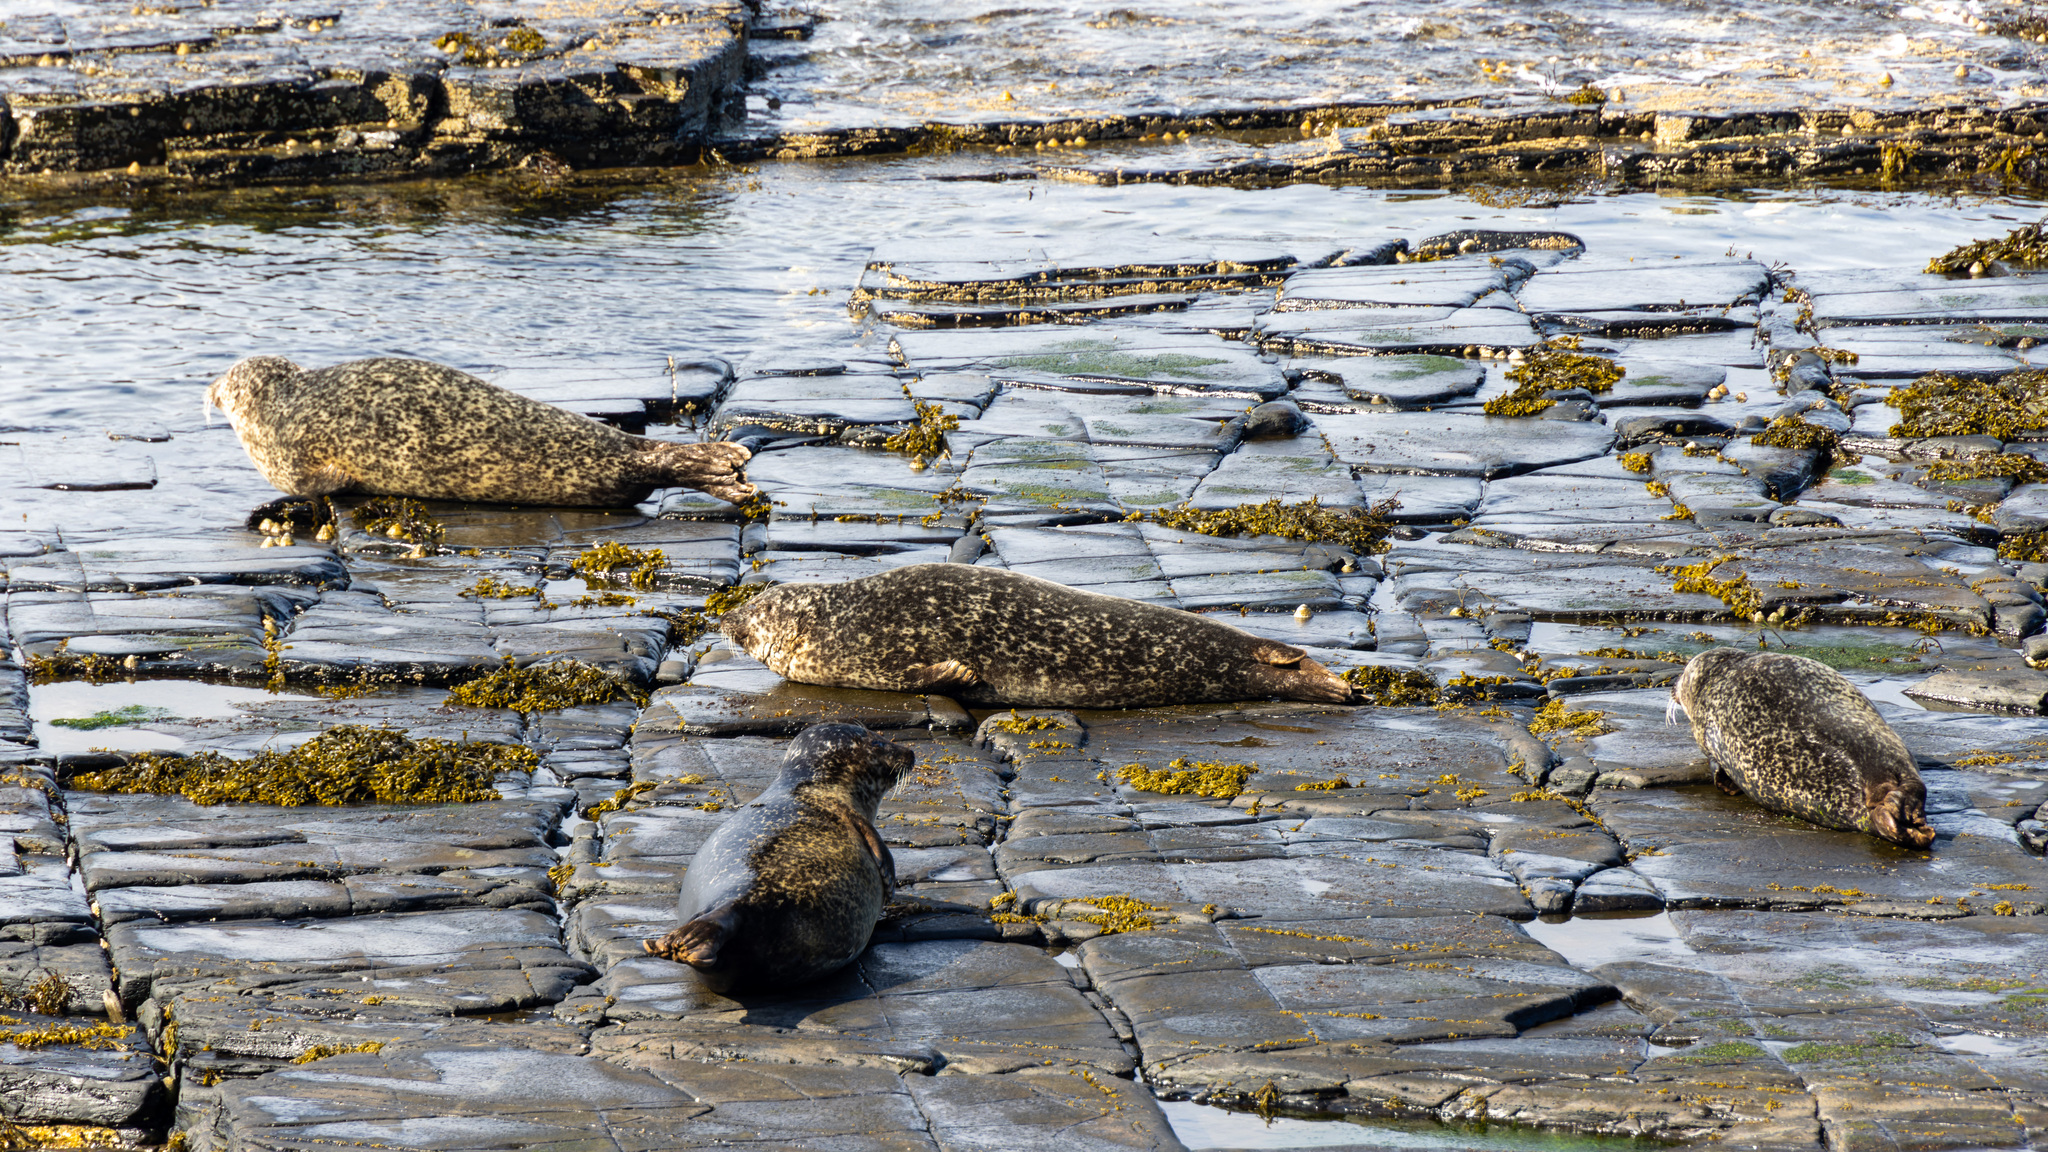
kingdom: Animalia
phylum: Chordata
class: Mammalia
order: Carnivora
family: Phocidae
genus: Phoca
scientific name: Phoca vitulina
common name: Harbor seal
